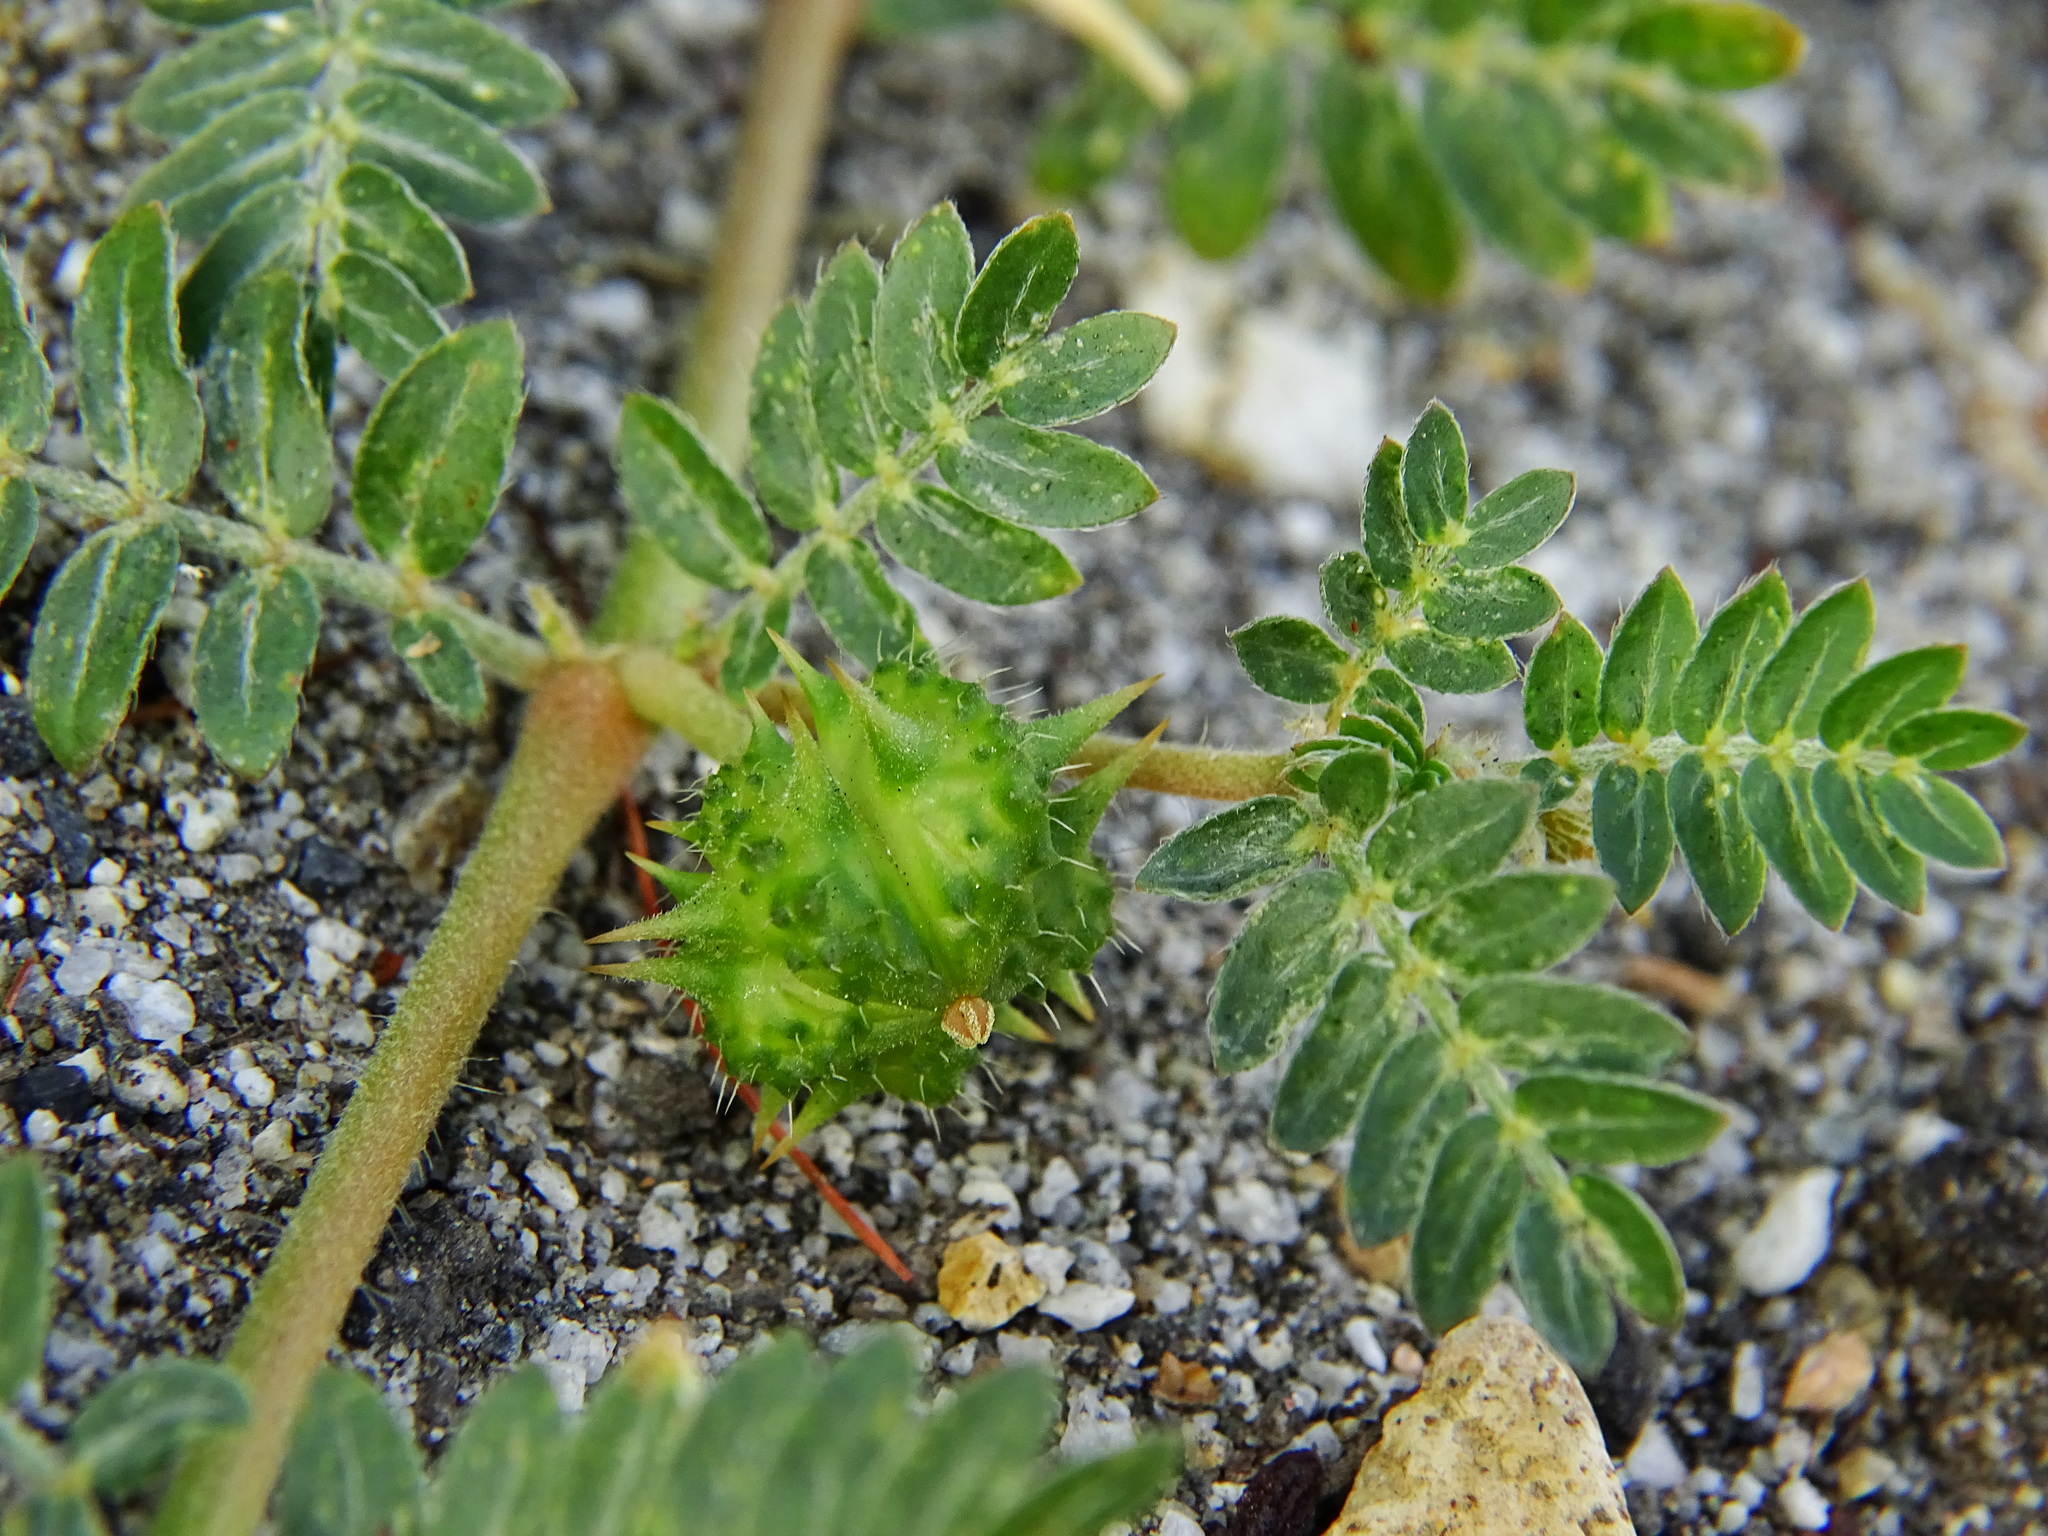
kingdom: Plantae
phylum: Tracheophyta
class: Magnoliopsida
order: Zygophyllales
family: Zygophyllaceae
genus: Tribulus
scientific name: Tribulus terrestris
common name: Puncturevine
